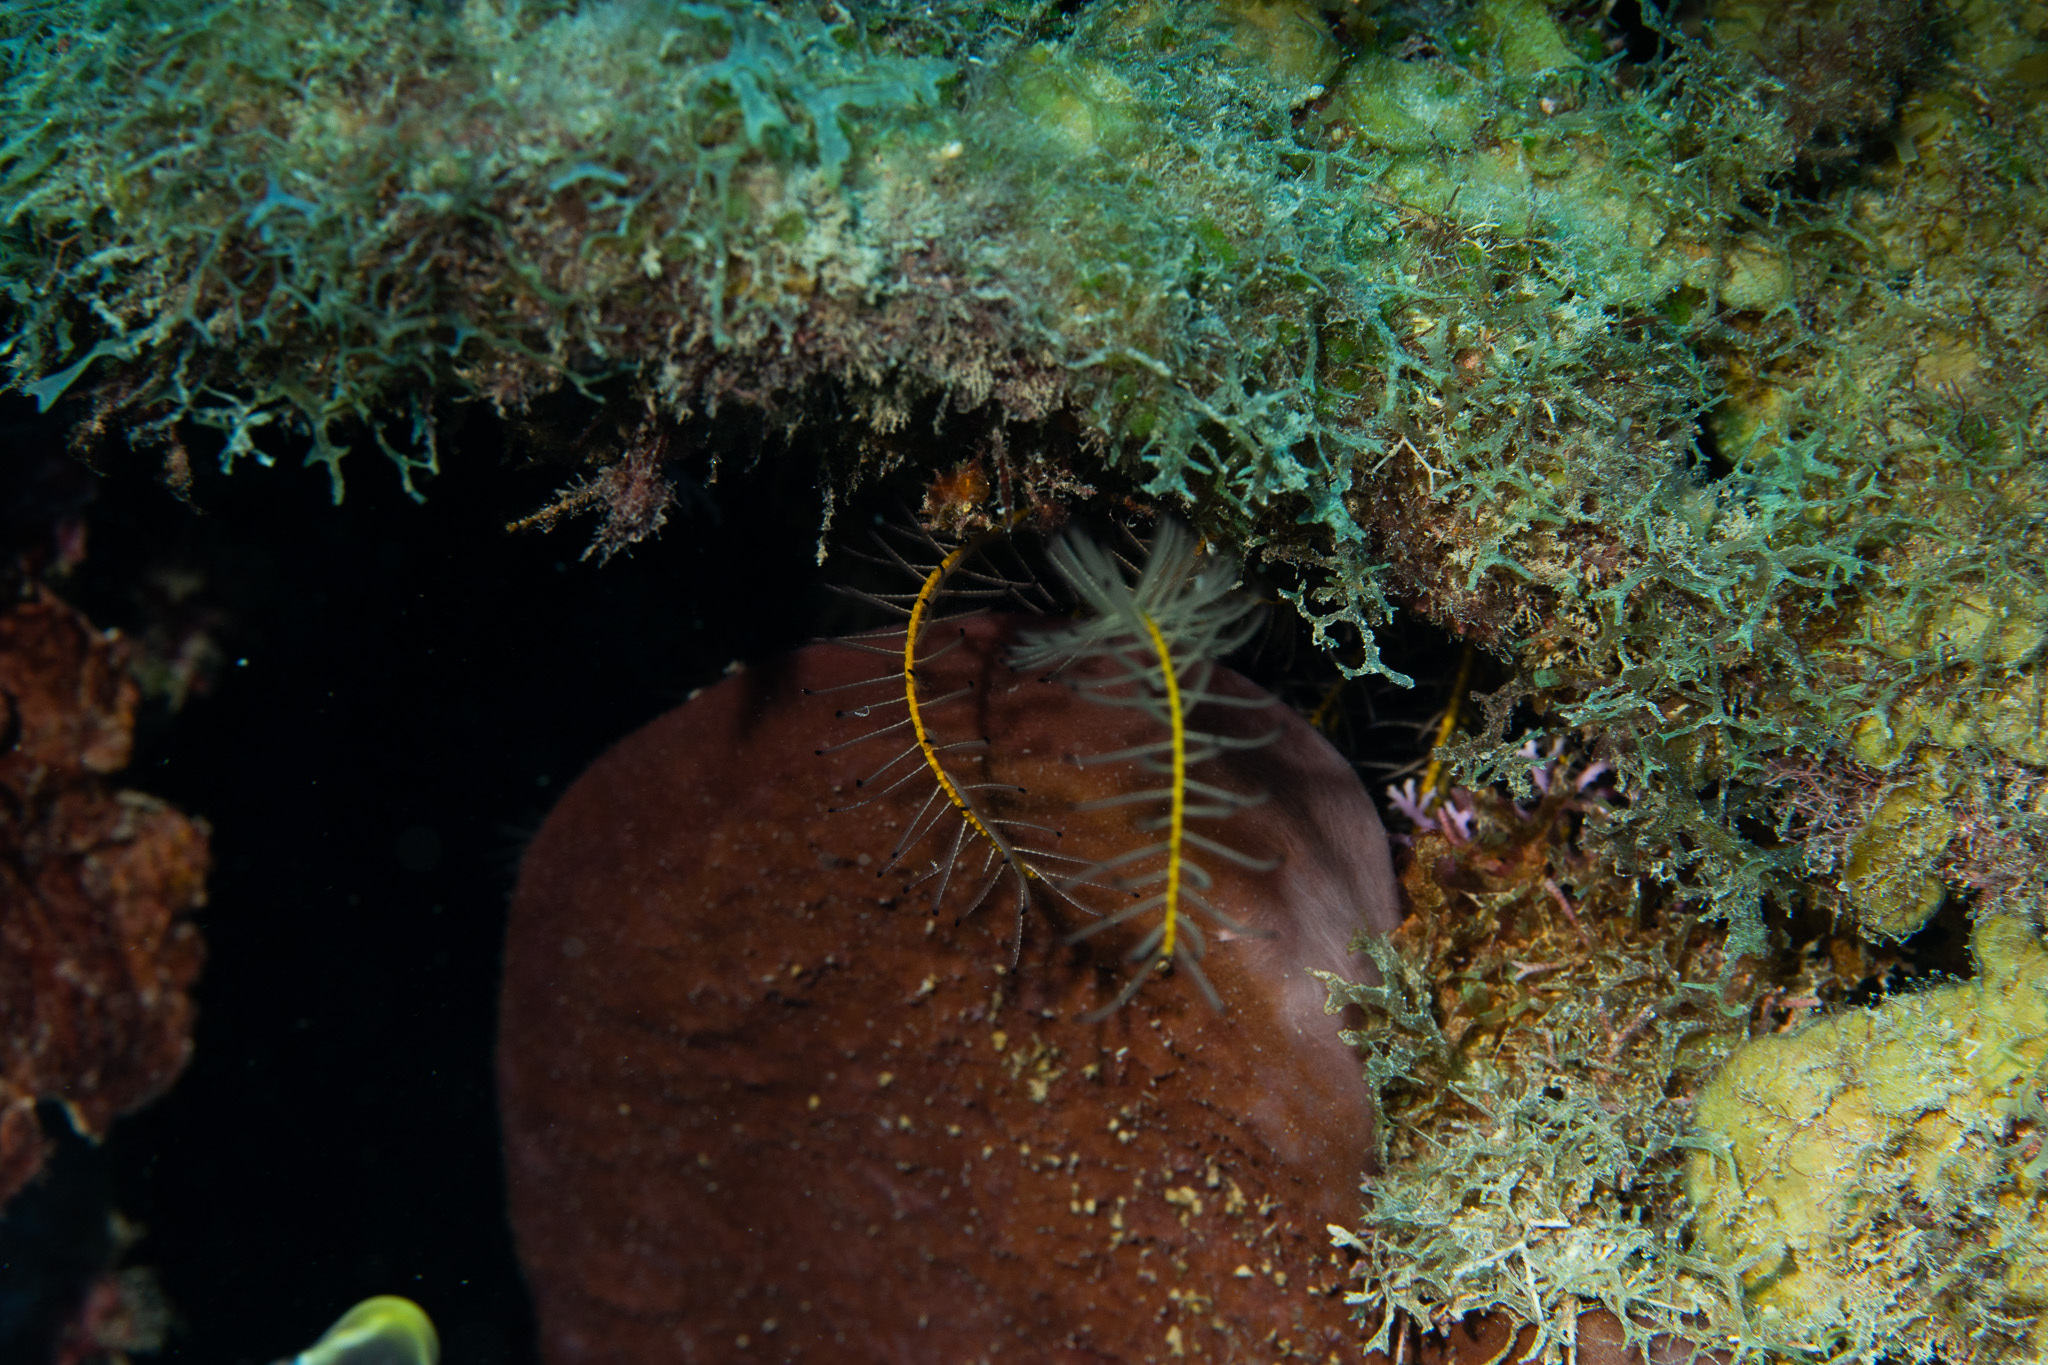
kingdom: Animalia
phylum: Echinodermata
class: Crinoidea
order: Comatulida
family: Comatulidae
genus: Davidaster
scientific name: Davidaster discoideus
